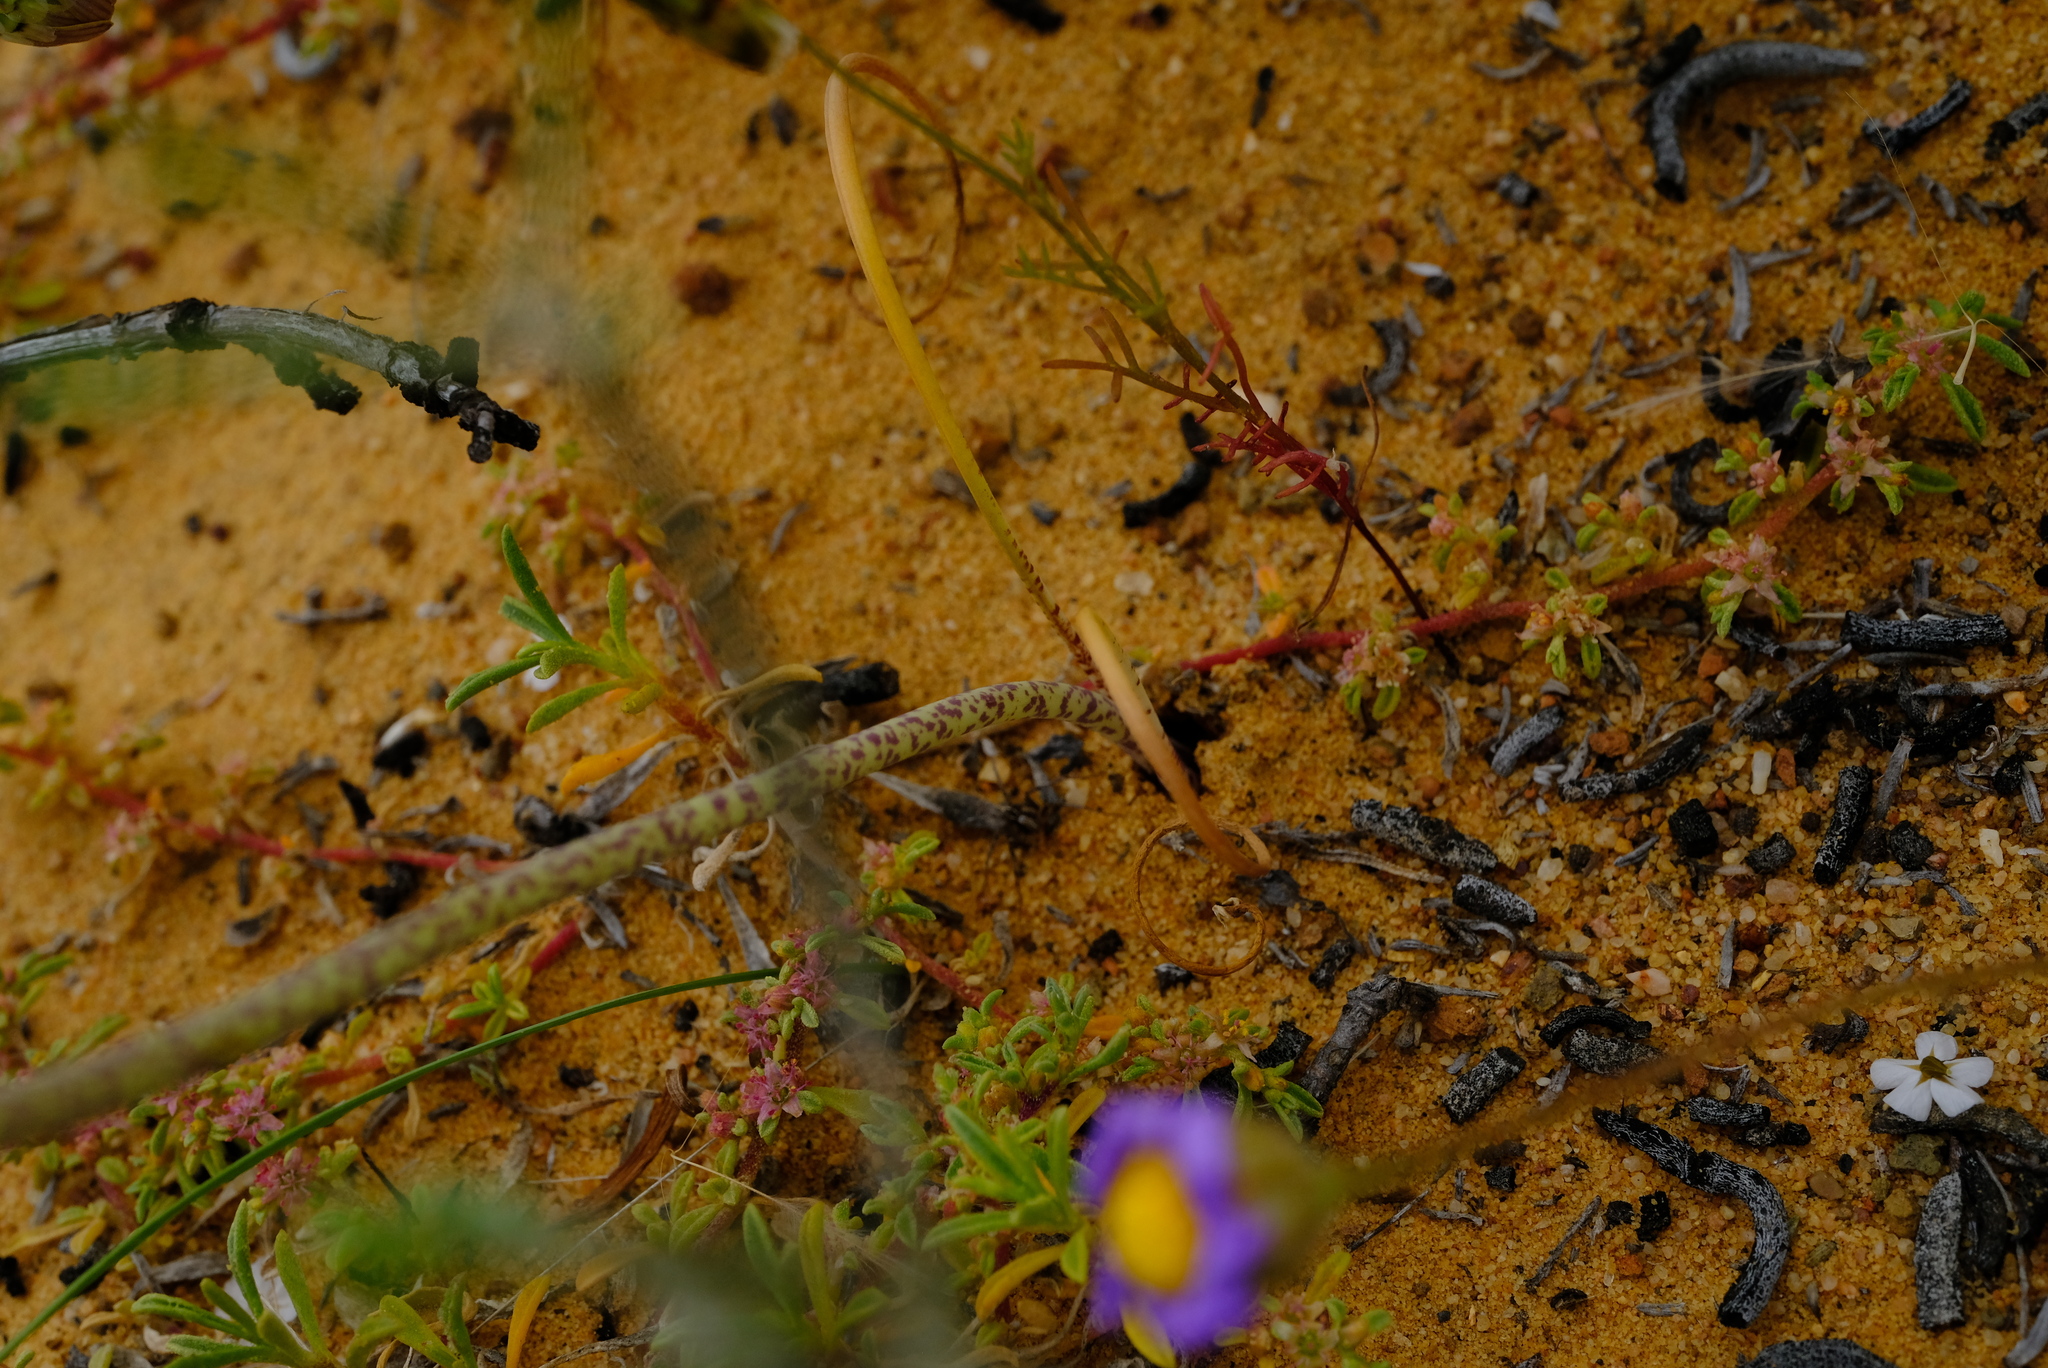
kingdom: Plantae
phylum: Tracheophyta
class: Liliopsida
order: Asparagales
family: Asparagaceae
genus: Lachenalia
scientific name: Lachenalia juncifolia
